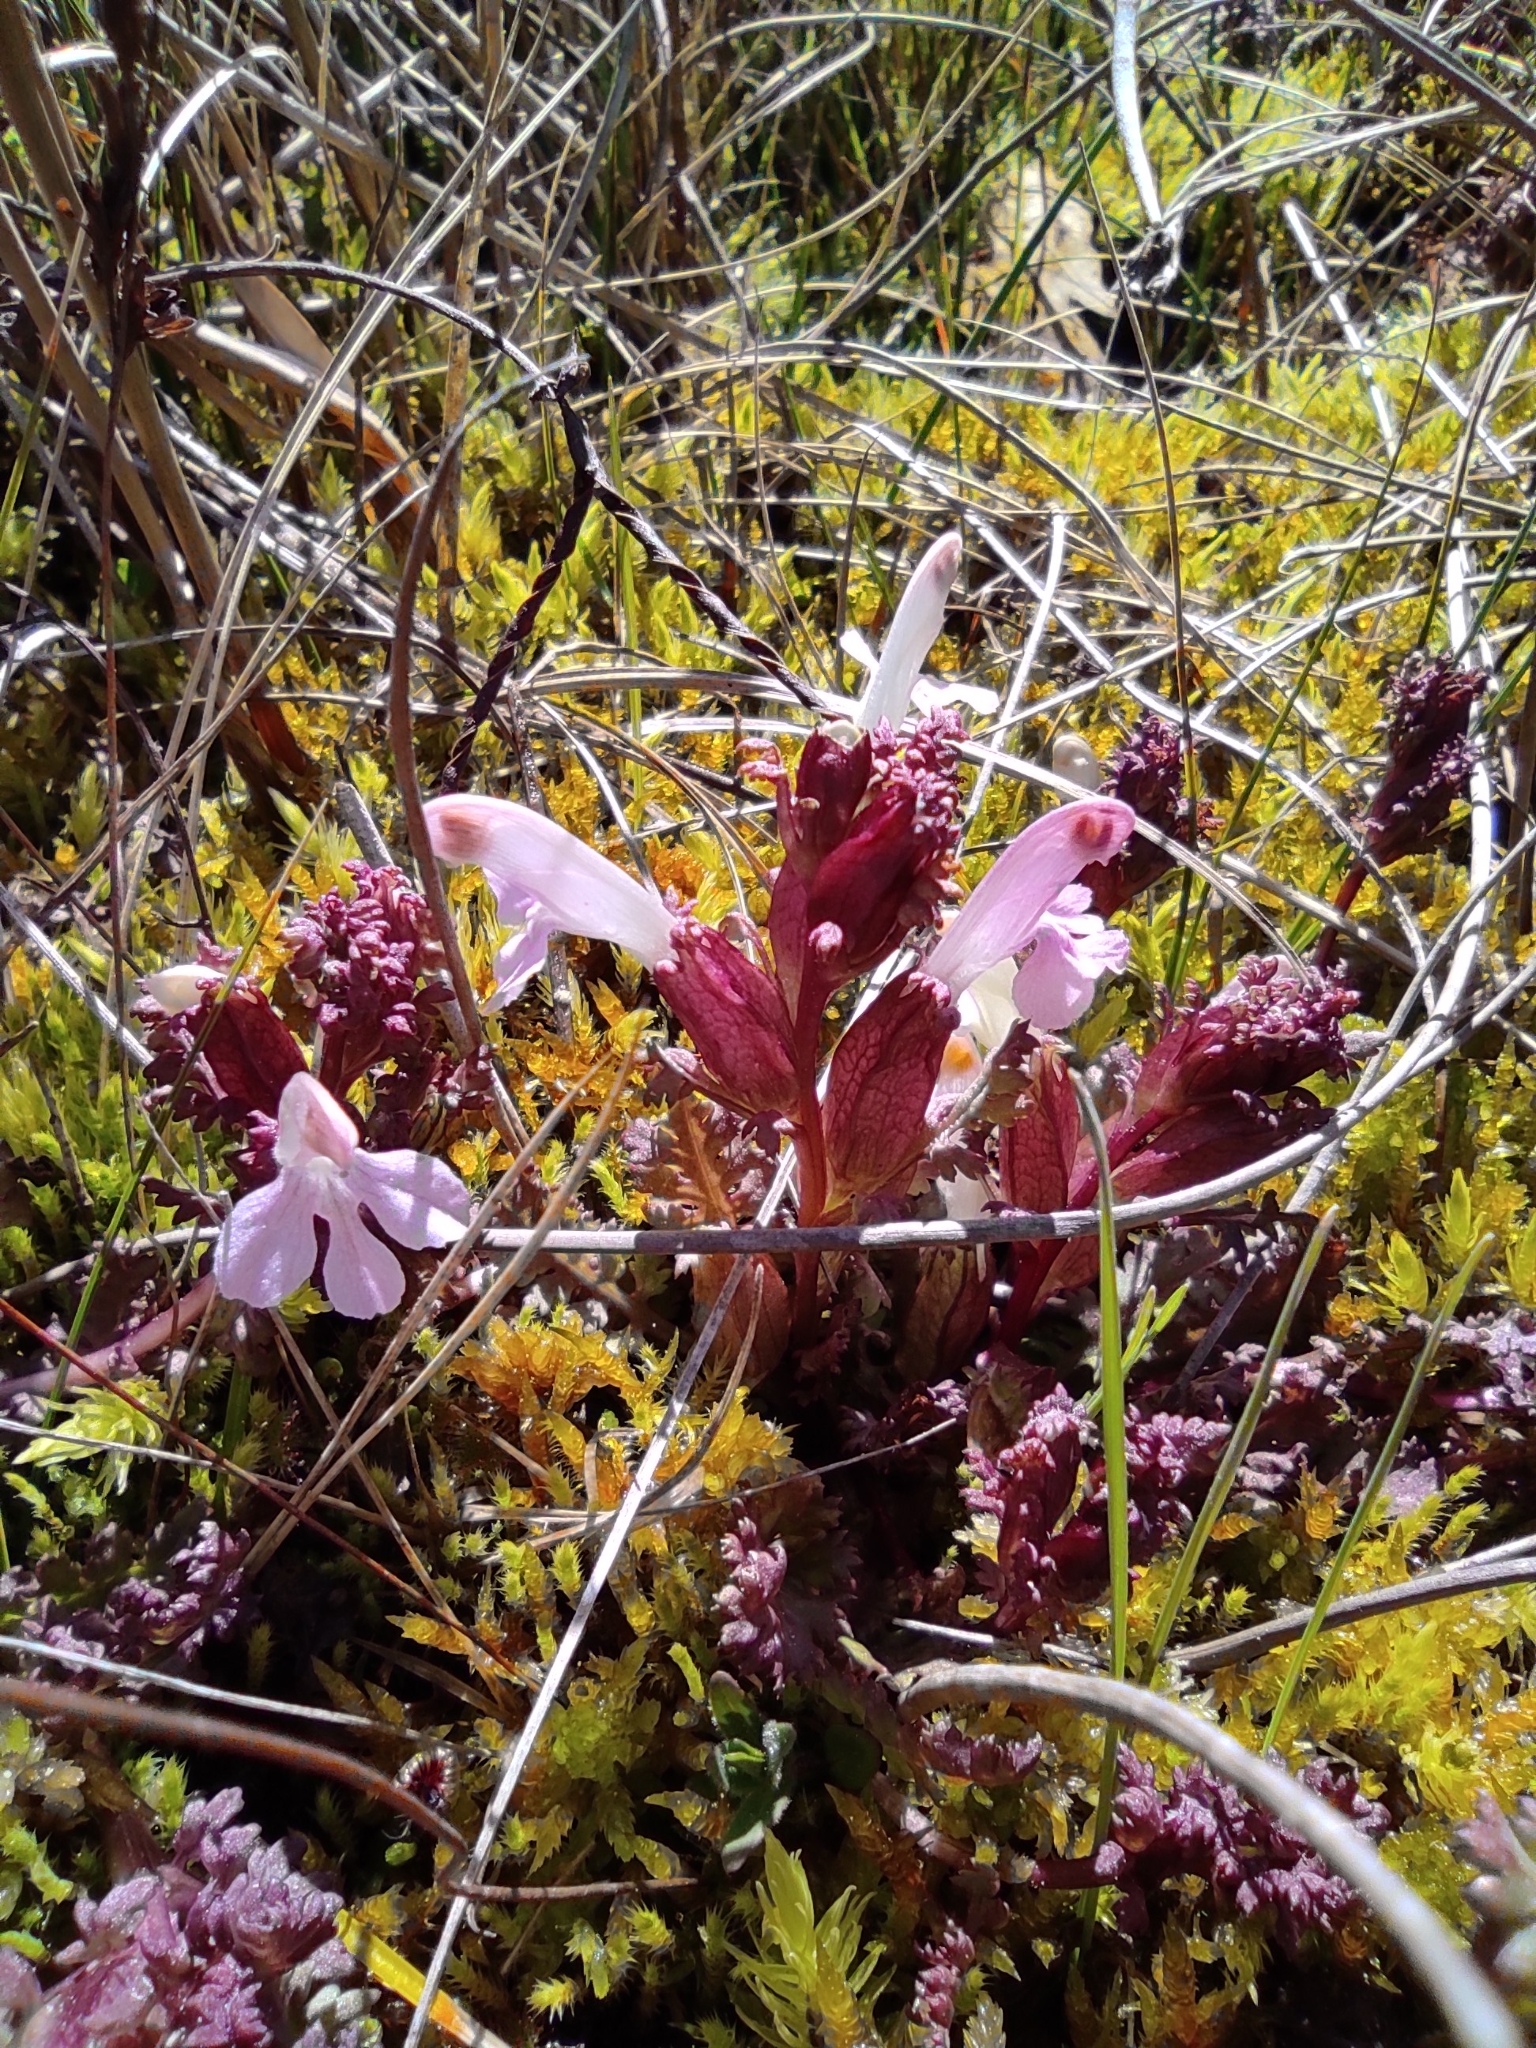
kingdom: Plantae
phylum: Tracheophyta
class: Magnoliopsida
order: Lamiales
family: Orobanchaceae
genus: Pedicularis
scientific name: Pedicularis sylvatica
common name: Lousewort
